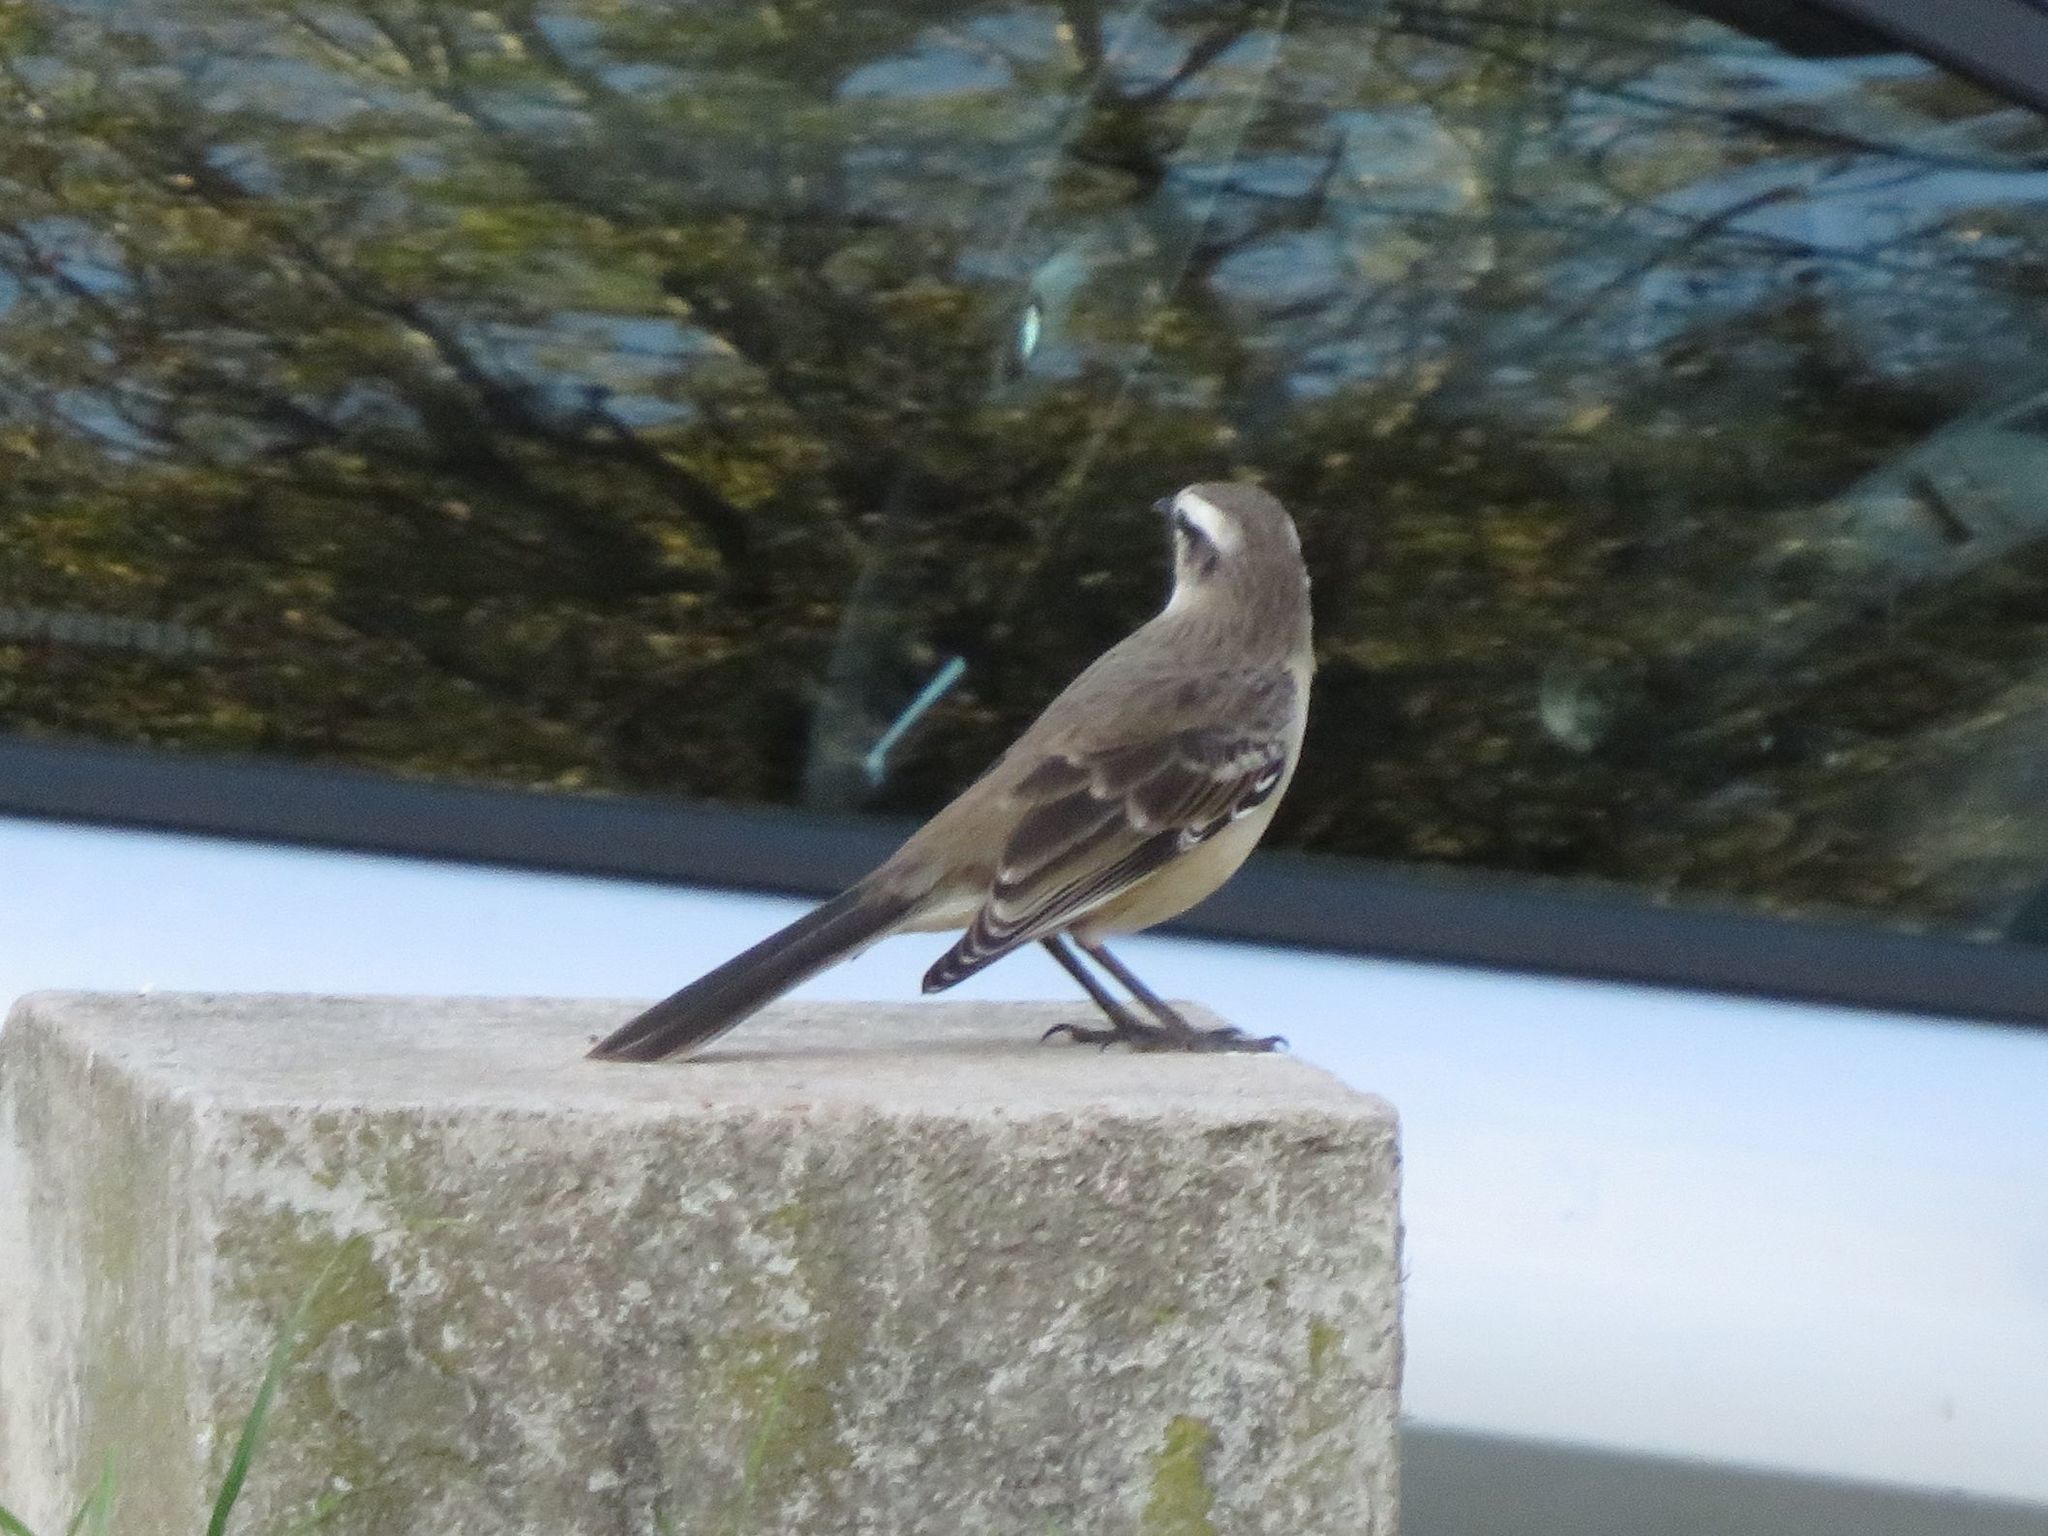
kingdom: Animalia
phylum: Chordata
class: Aves
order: Passeriformes
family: Mimidae
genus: Mimus
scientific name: Mimus saturninus
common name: Chalk-browed mockingbird
